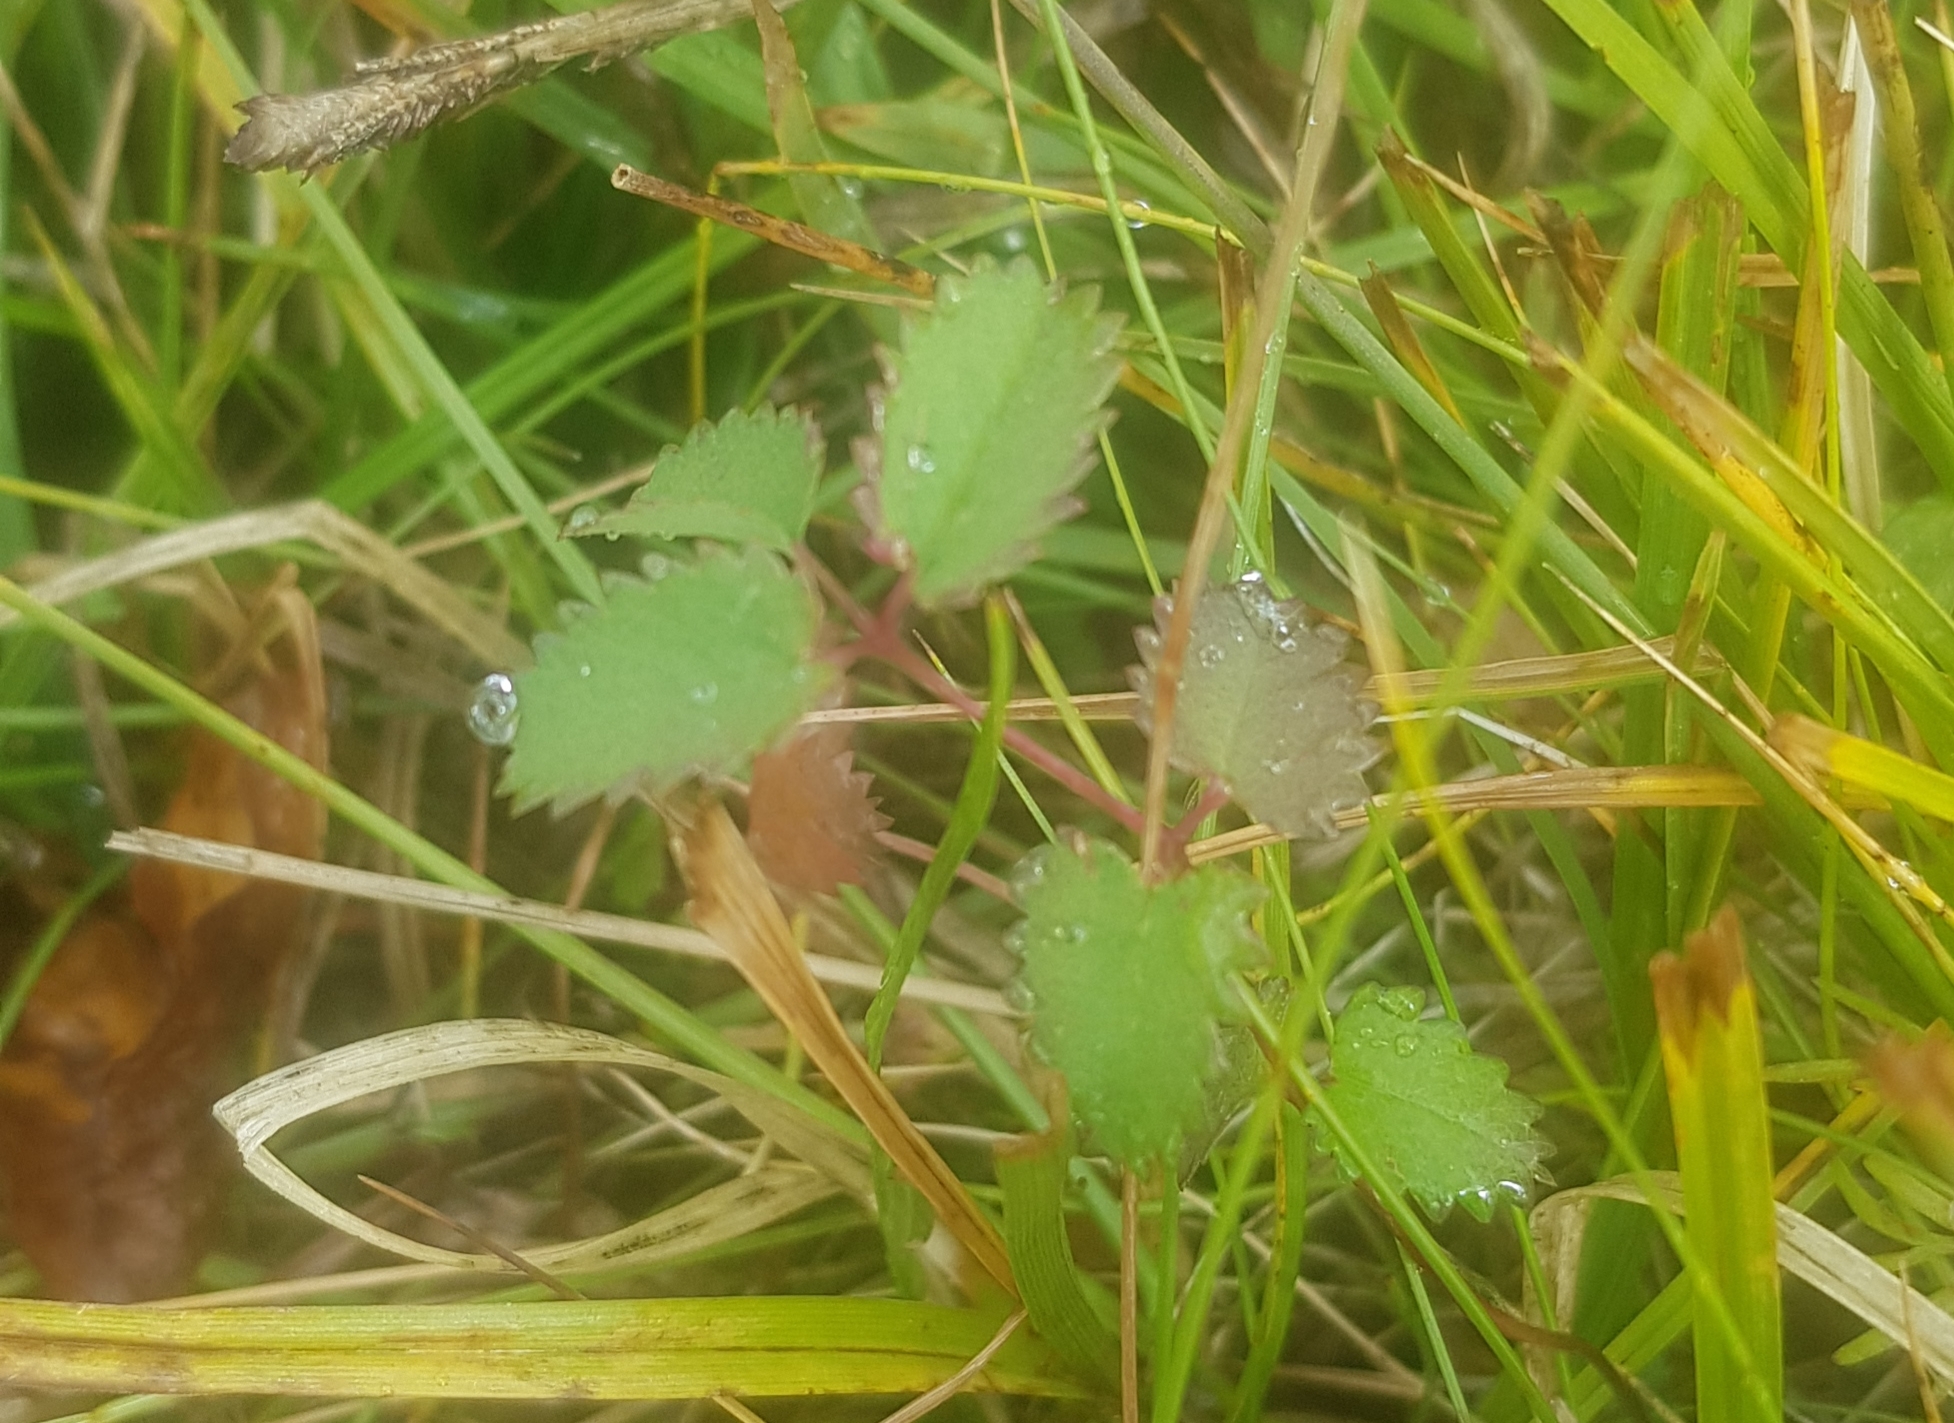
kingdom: Plantae
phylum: Tracheophyta
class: Magnoliopsida
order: Rosales
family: Rosaceae
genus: Sanguisorba
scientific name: Sanguisorba officinalis
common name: Great burnet
